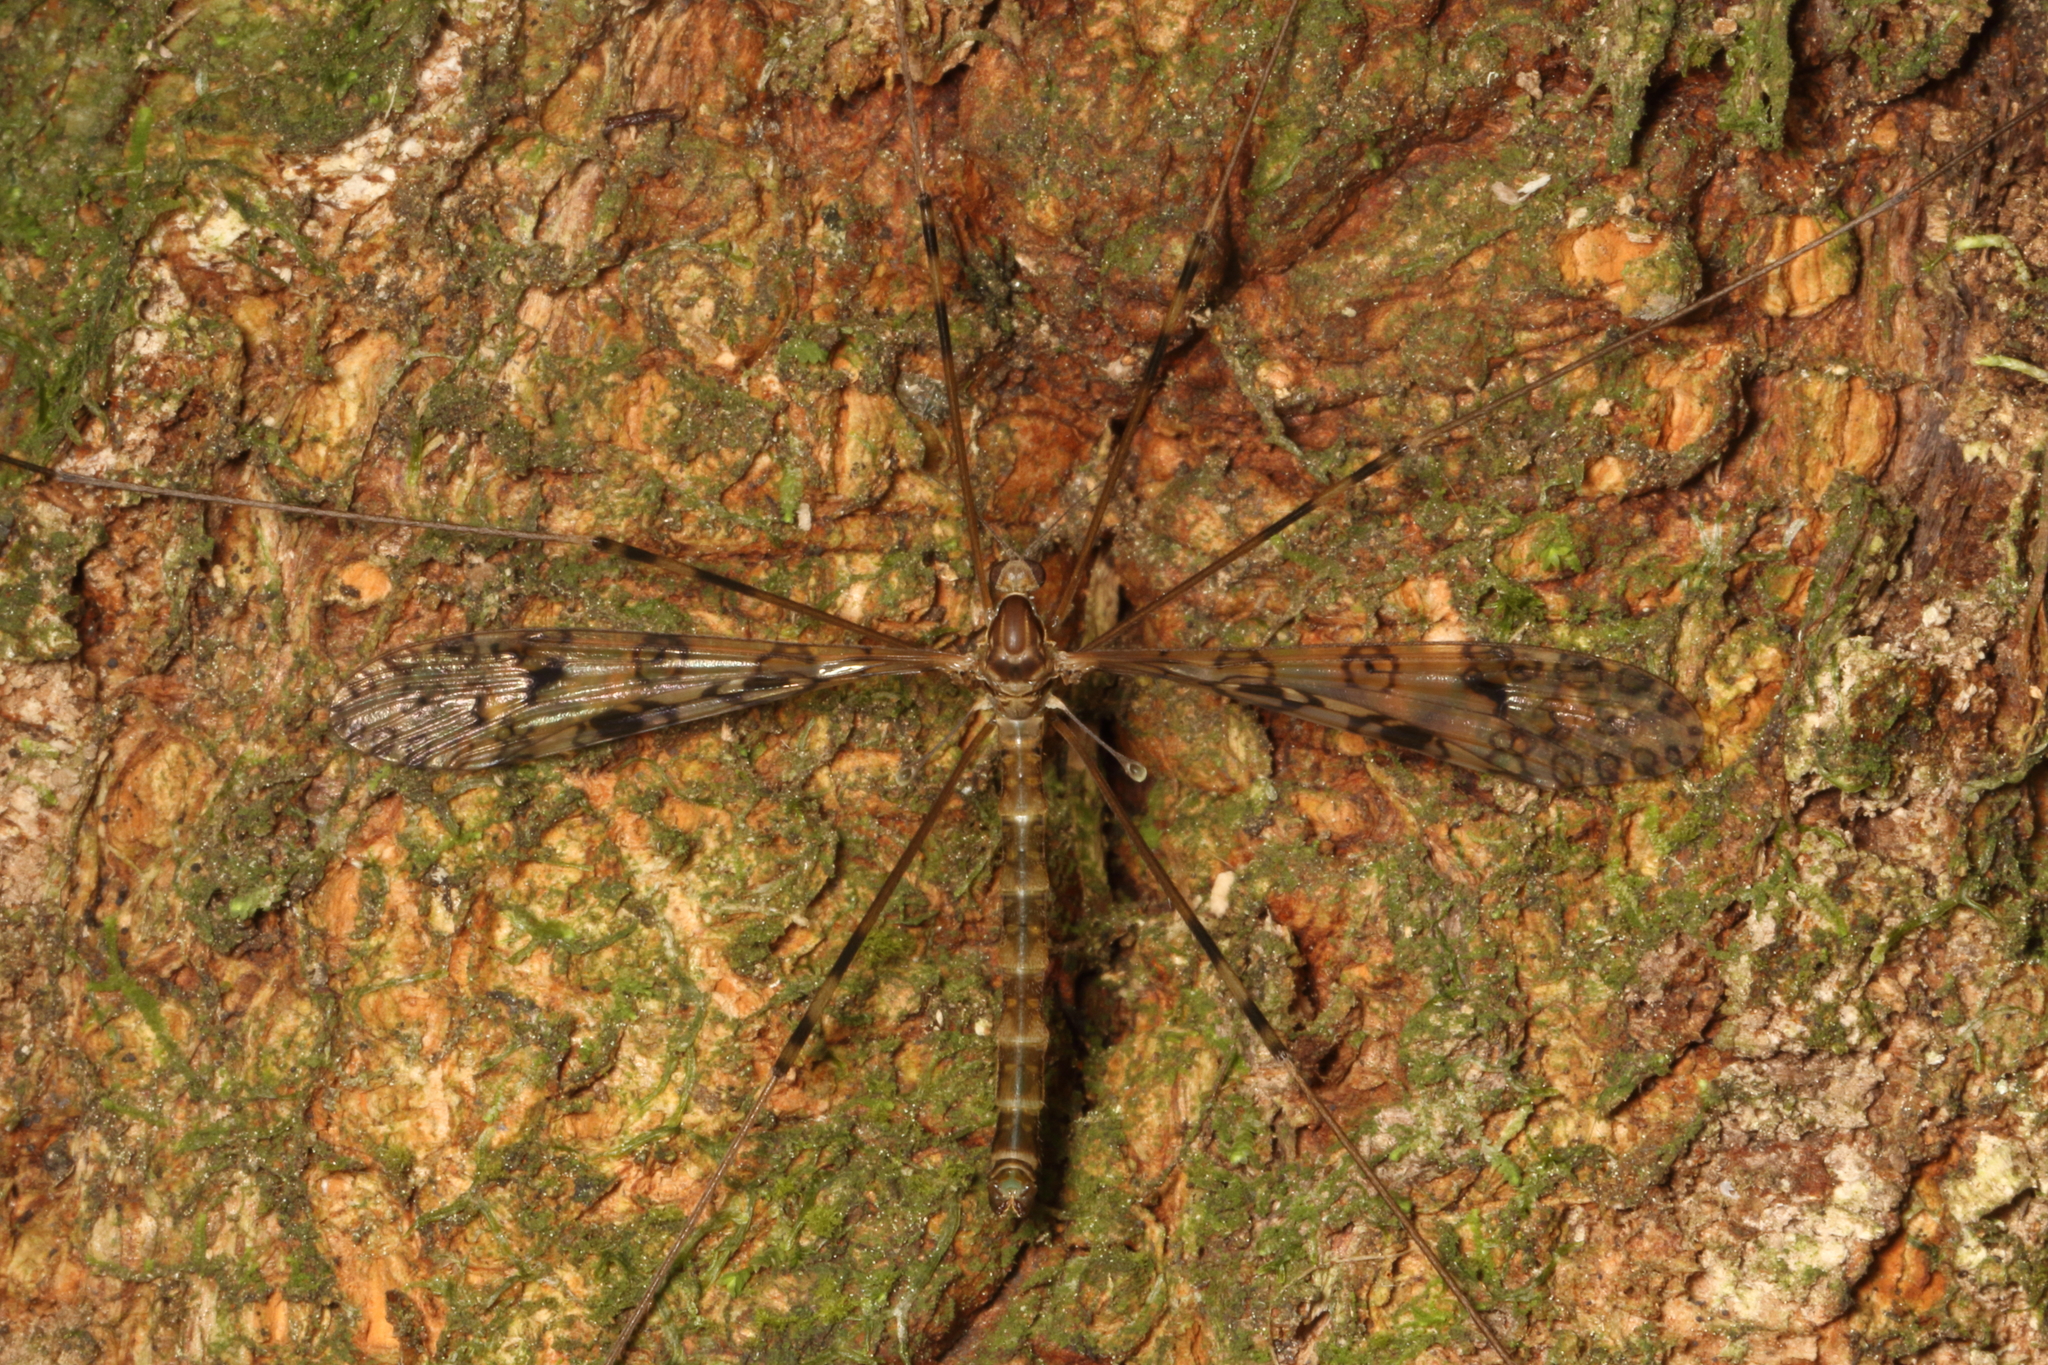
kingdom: Animalia
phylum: Arthropoda
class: Insecta
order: Diptera
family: Limoniidae
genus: Austrolimnophila
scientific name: Austrolimnophila argus
